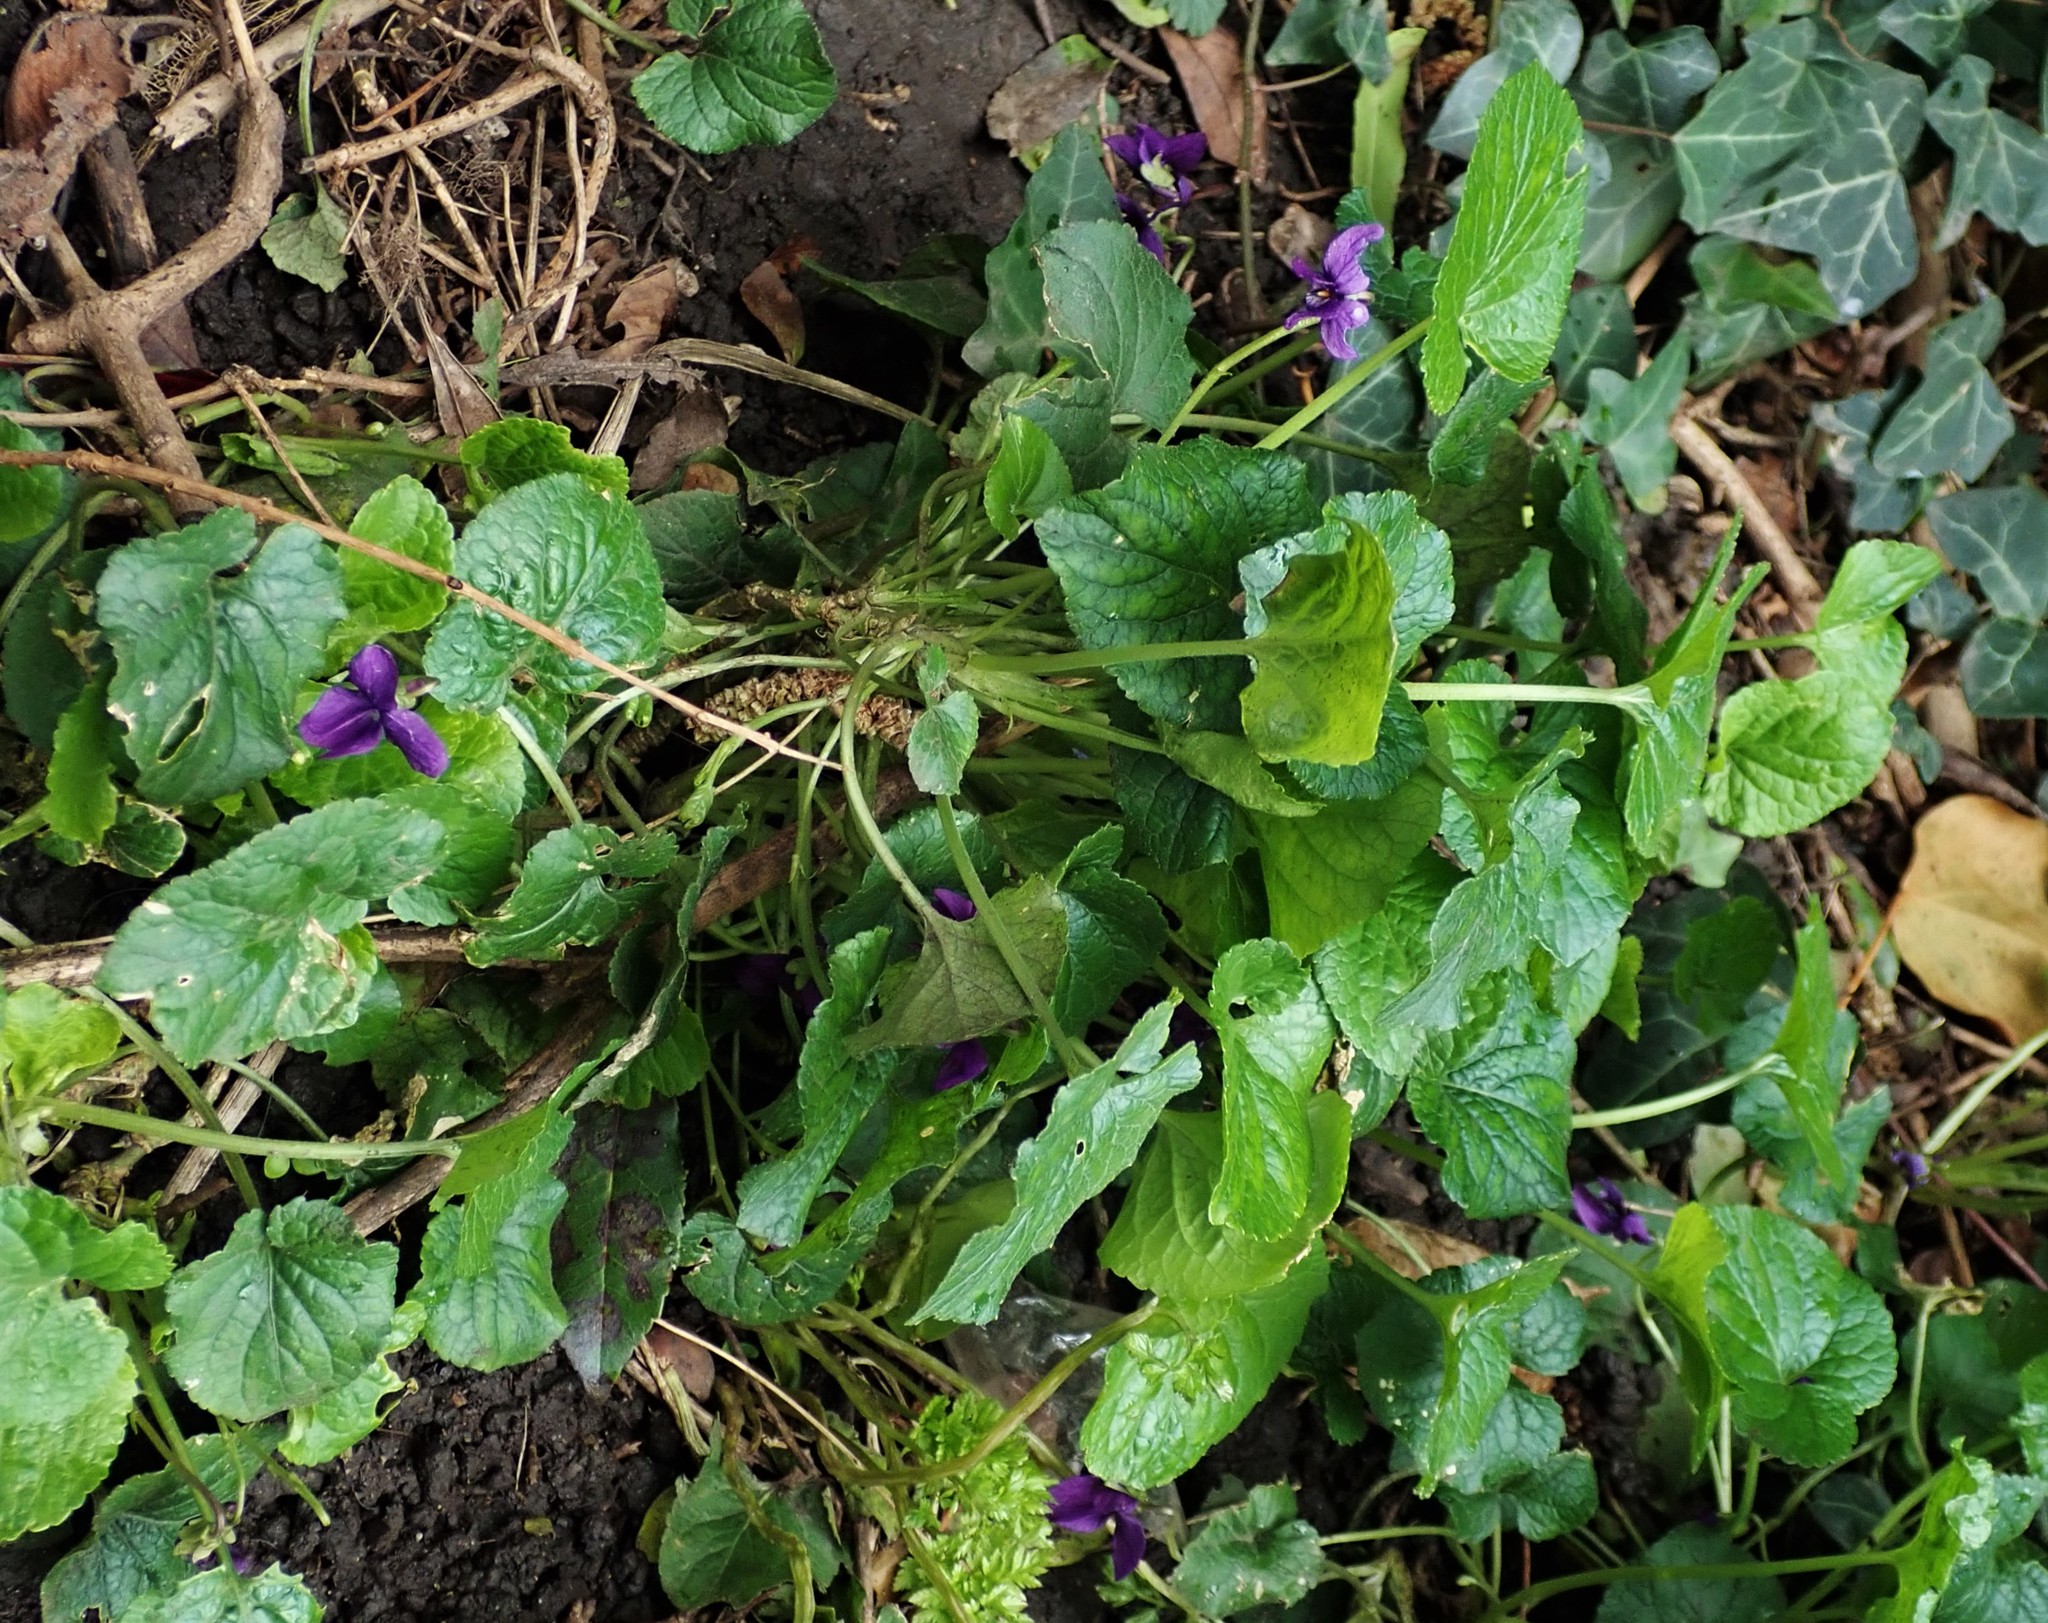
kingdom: Plantae
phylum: Tracheophyta
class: Magnoliopsida
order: Malpighiales
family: Violaceae
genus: Viola
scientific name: Viola odorata
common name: Sweet violet
